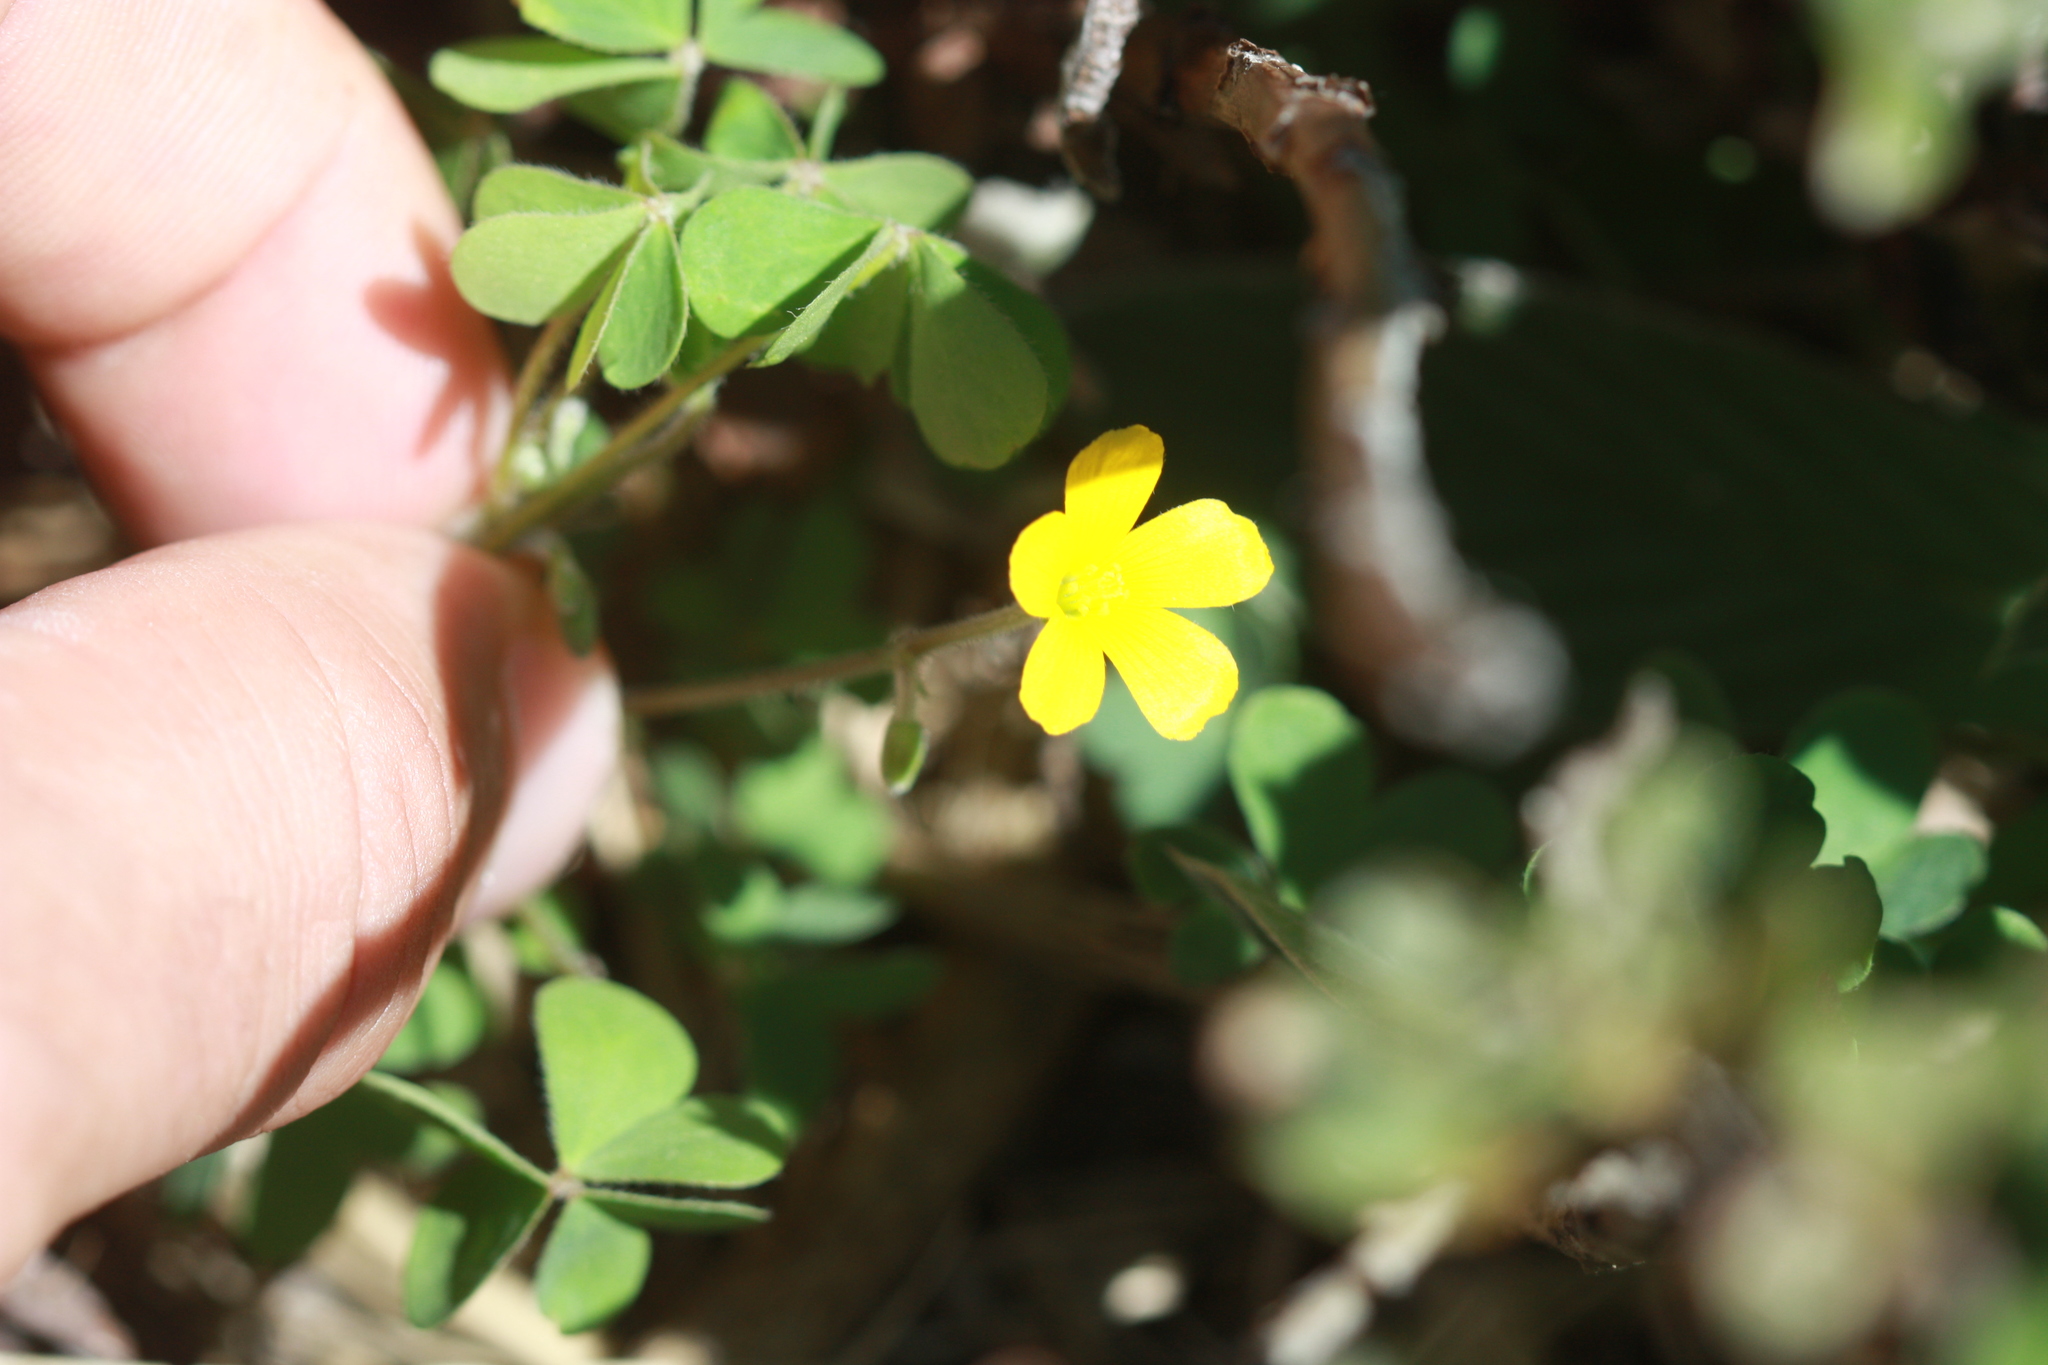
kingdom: Plantae
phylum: Tracheophyta
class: Magnoliopsida
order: Oxalidales
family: Oxalidaceae
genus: Oxalis
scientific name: Oxalis
